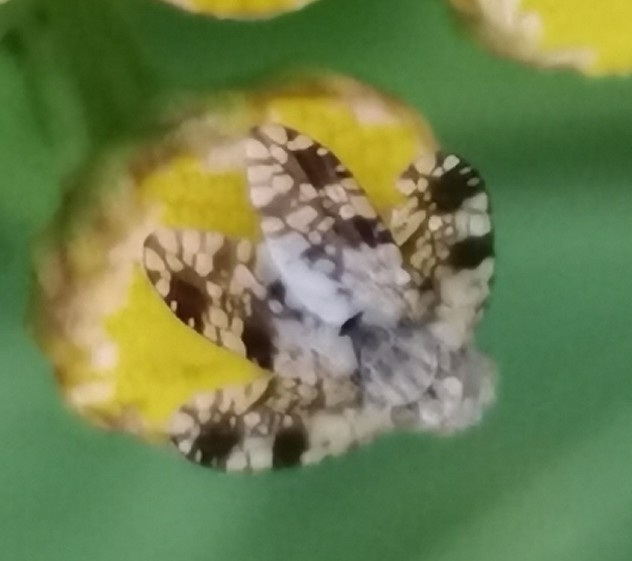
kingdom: Animalia
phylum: Arthropoda
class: Insecta
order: Diptera
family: Tephritidae
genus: Tephritis
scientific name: Tephritis hyoscyami
